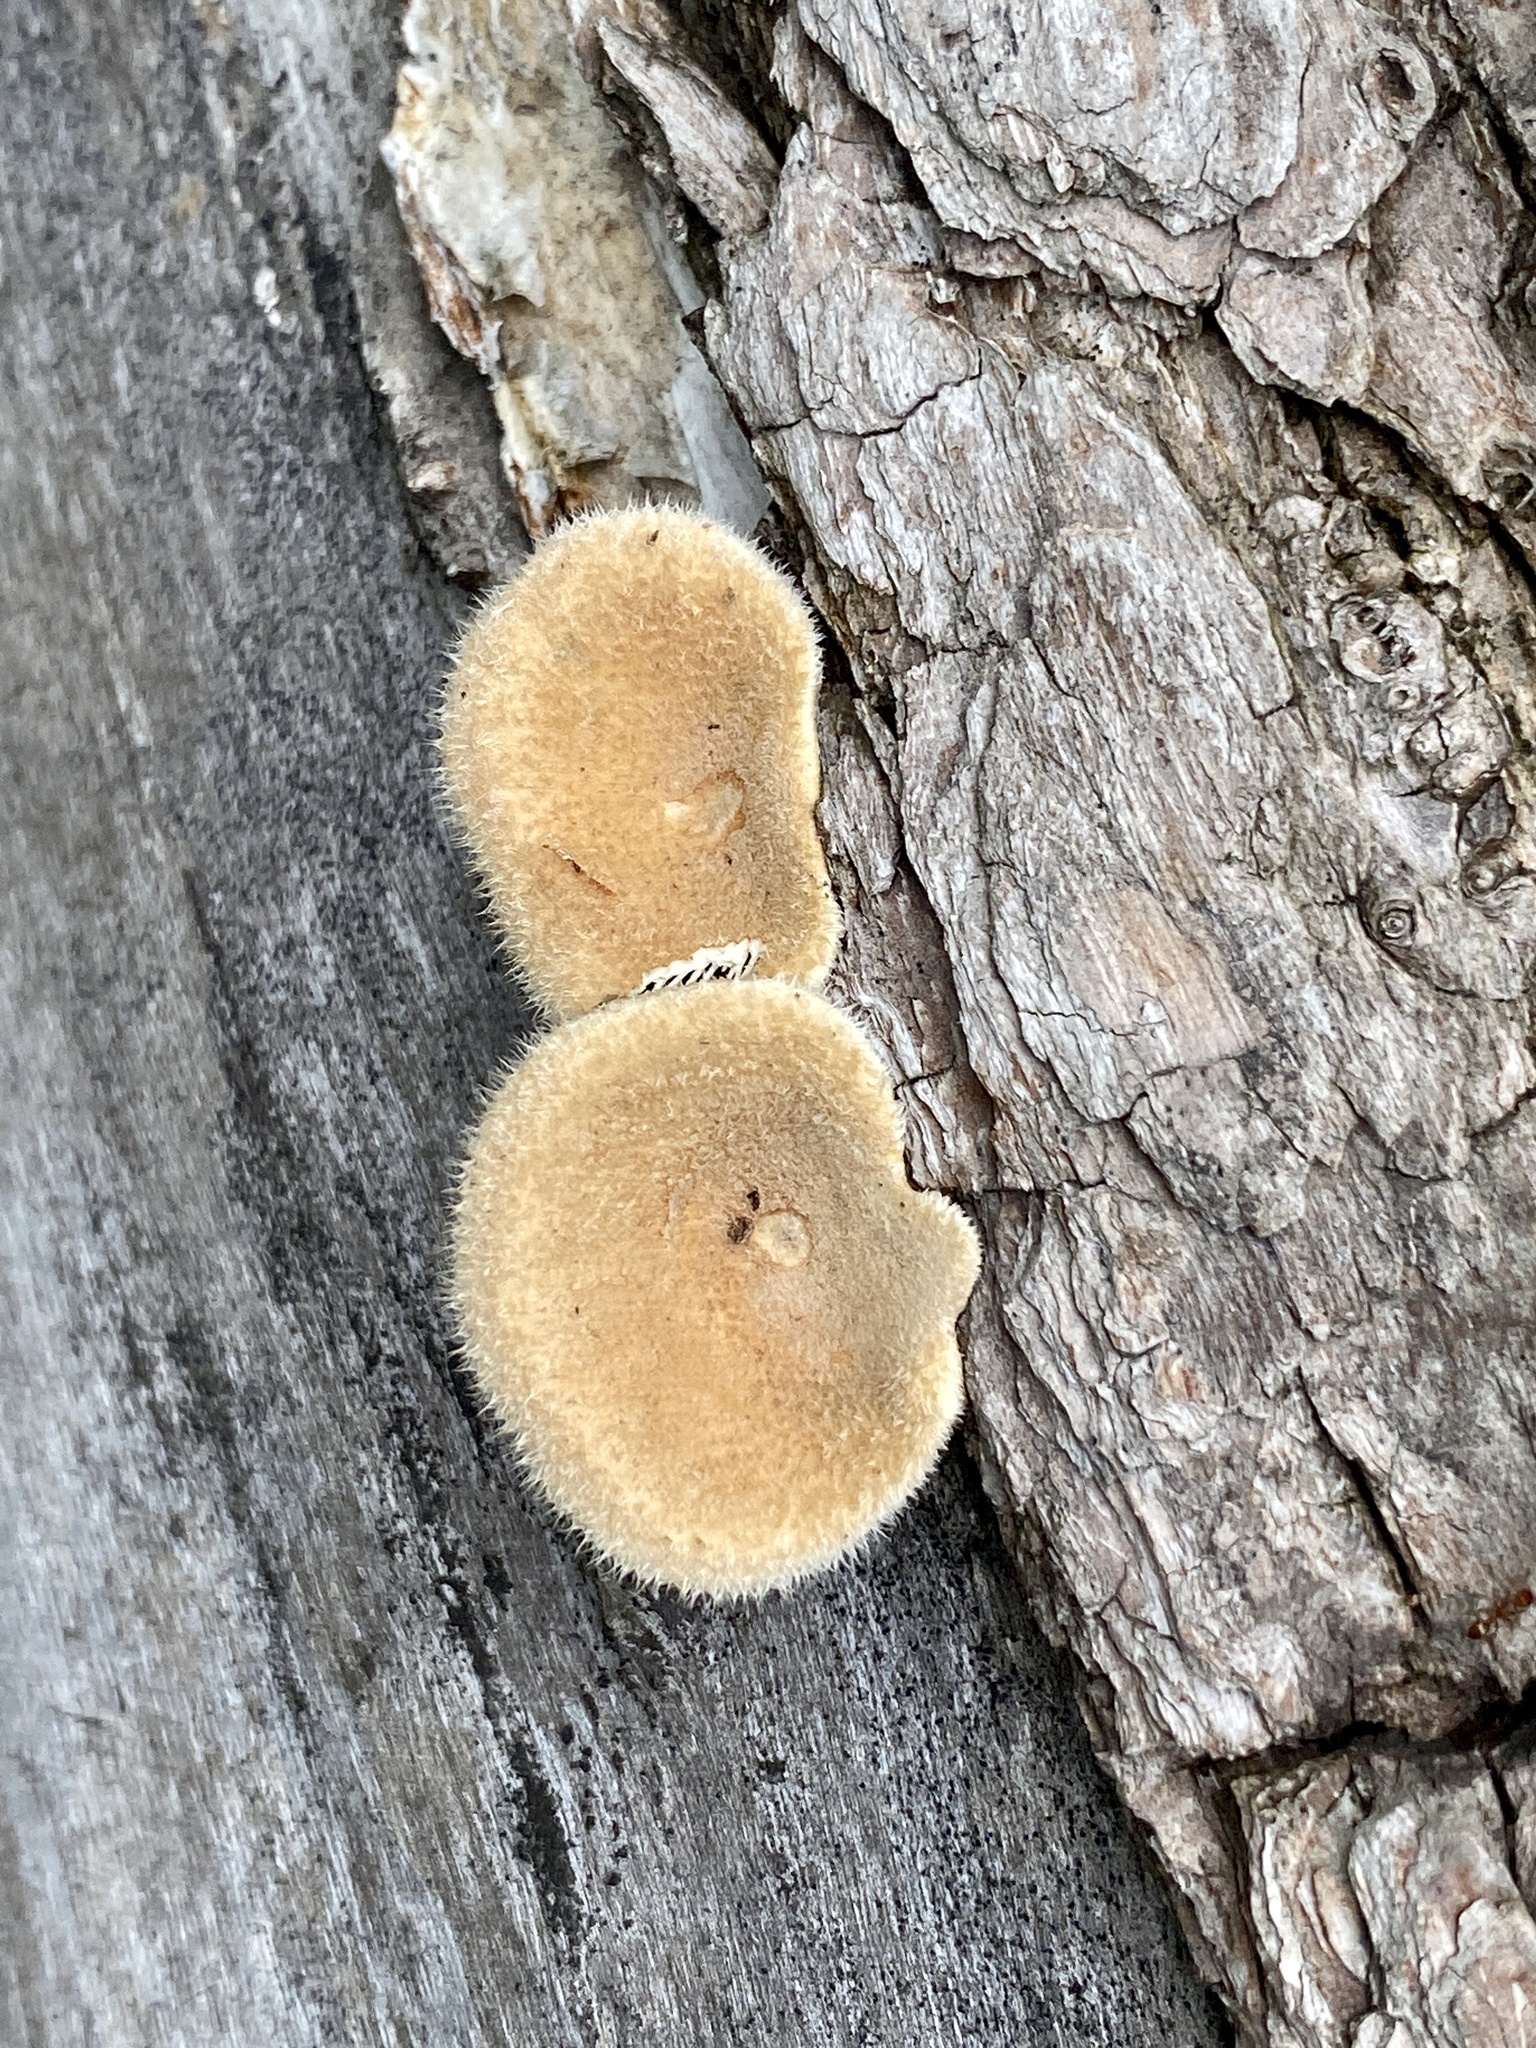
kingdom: Fungi
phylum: Basidiomycota
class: Agaricomycetes
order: Polyporales
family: Panaceae
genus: Panus
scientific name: Panus neostrigosus
